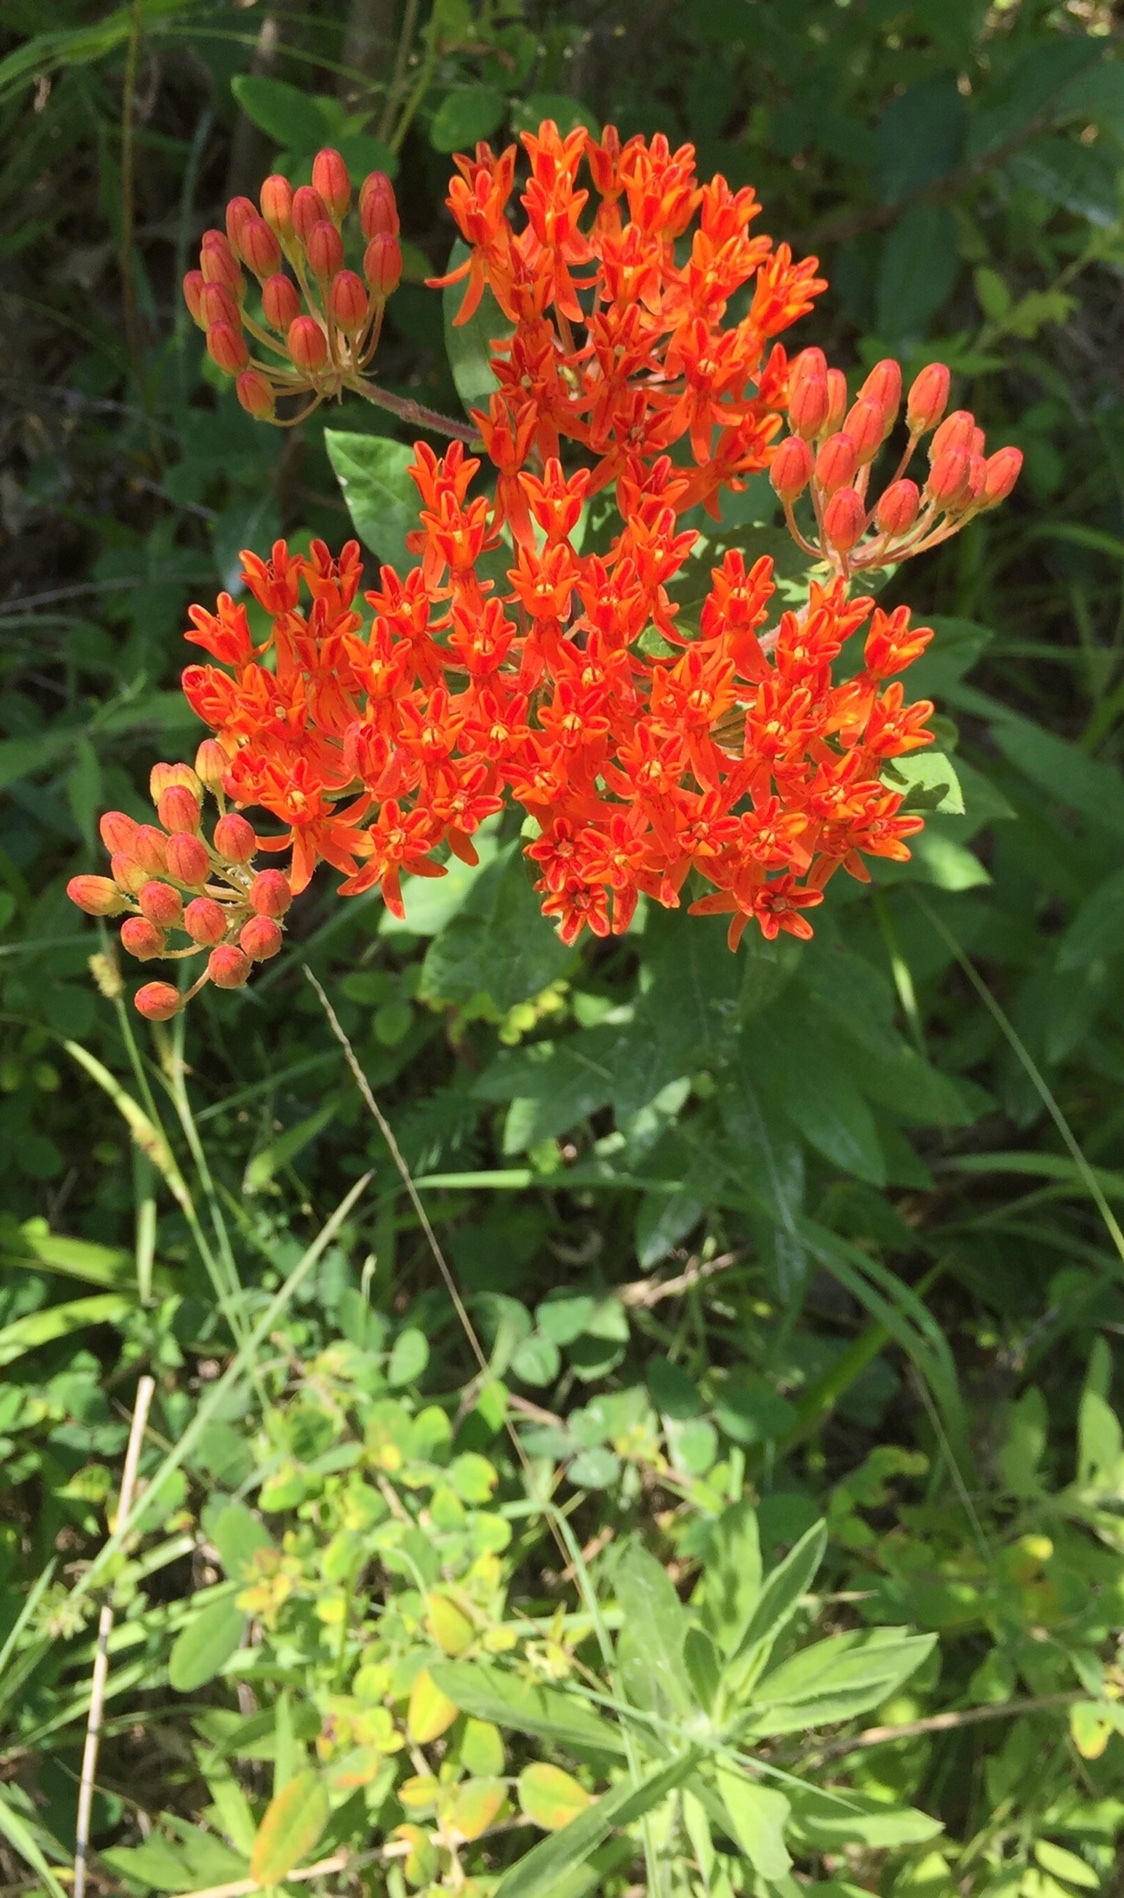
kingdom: Plantae
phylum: Tracheophyta
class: Magnoliopsida
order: Gentianales
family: Apocynaceae
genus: Asclepias
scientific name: Asclepias tuberosa
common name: Butterfly milkweed
